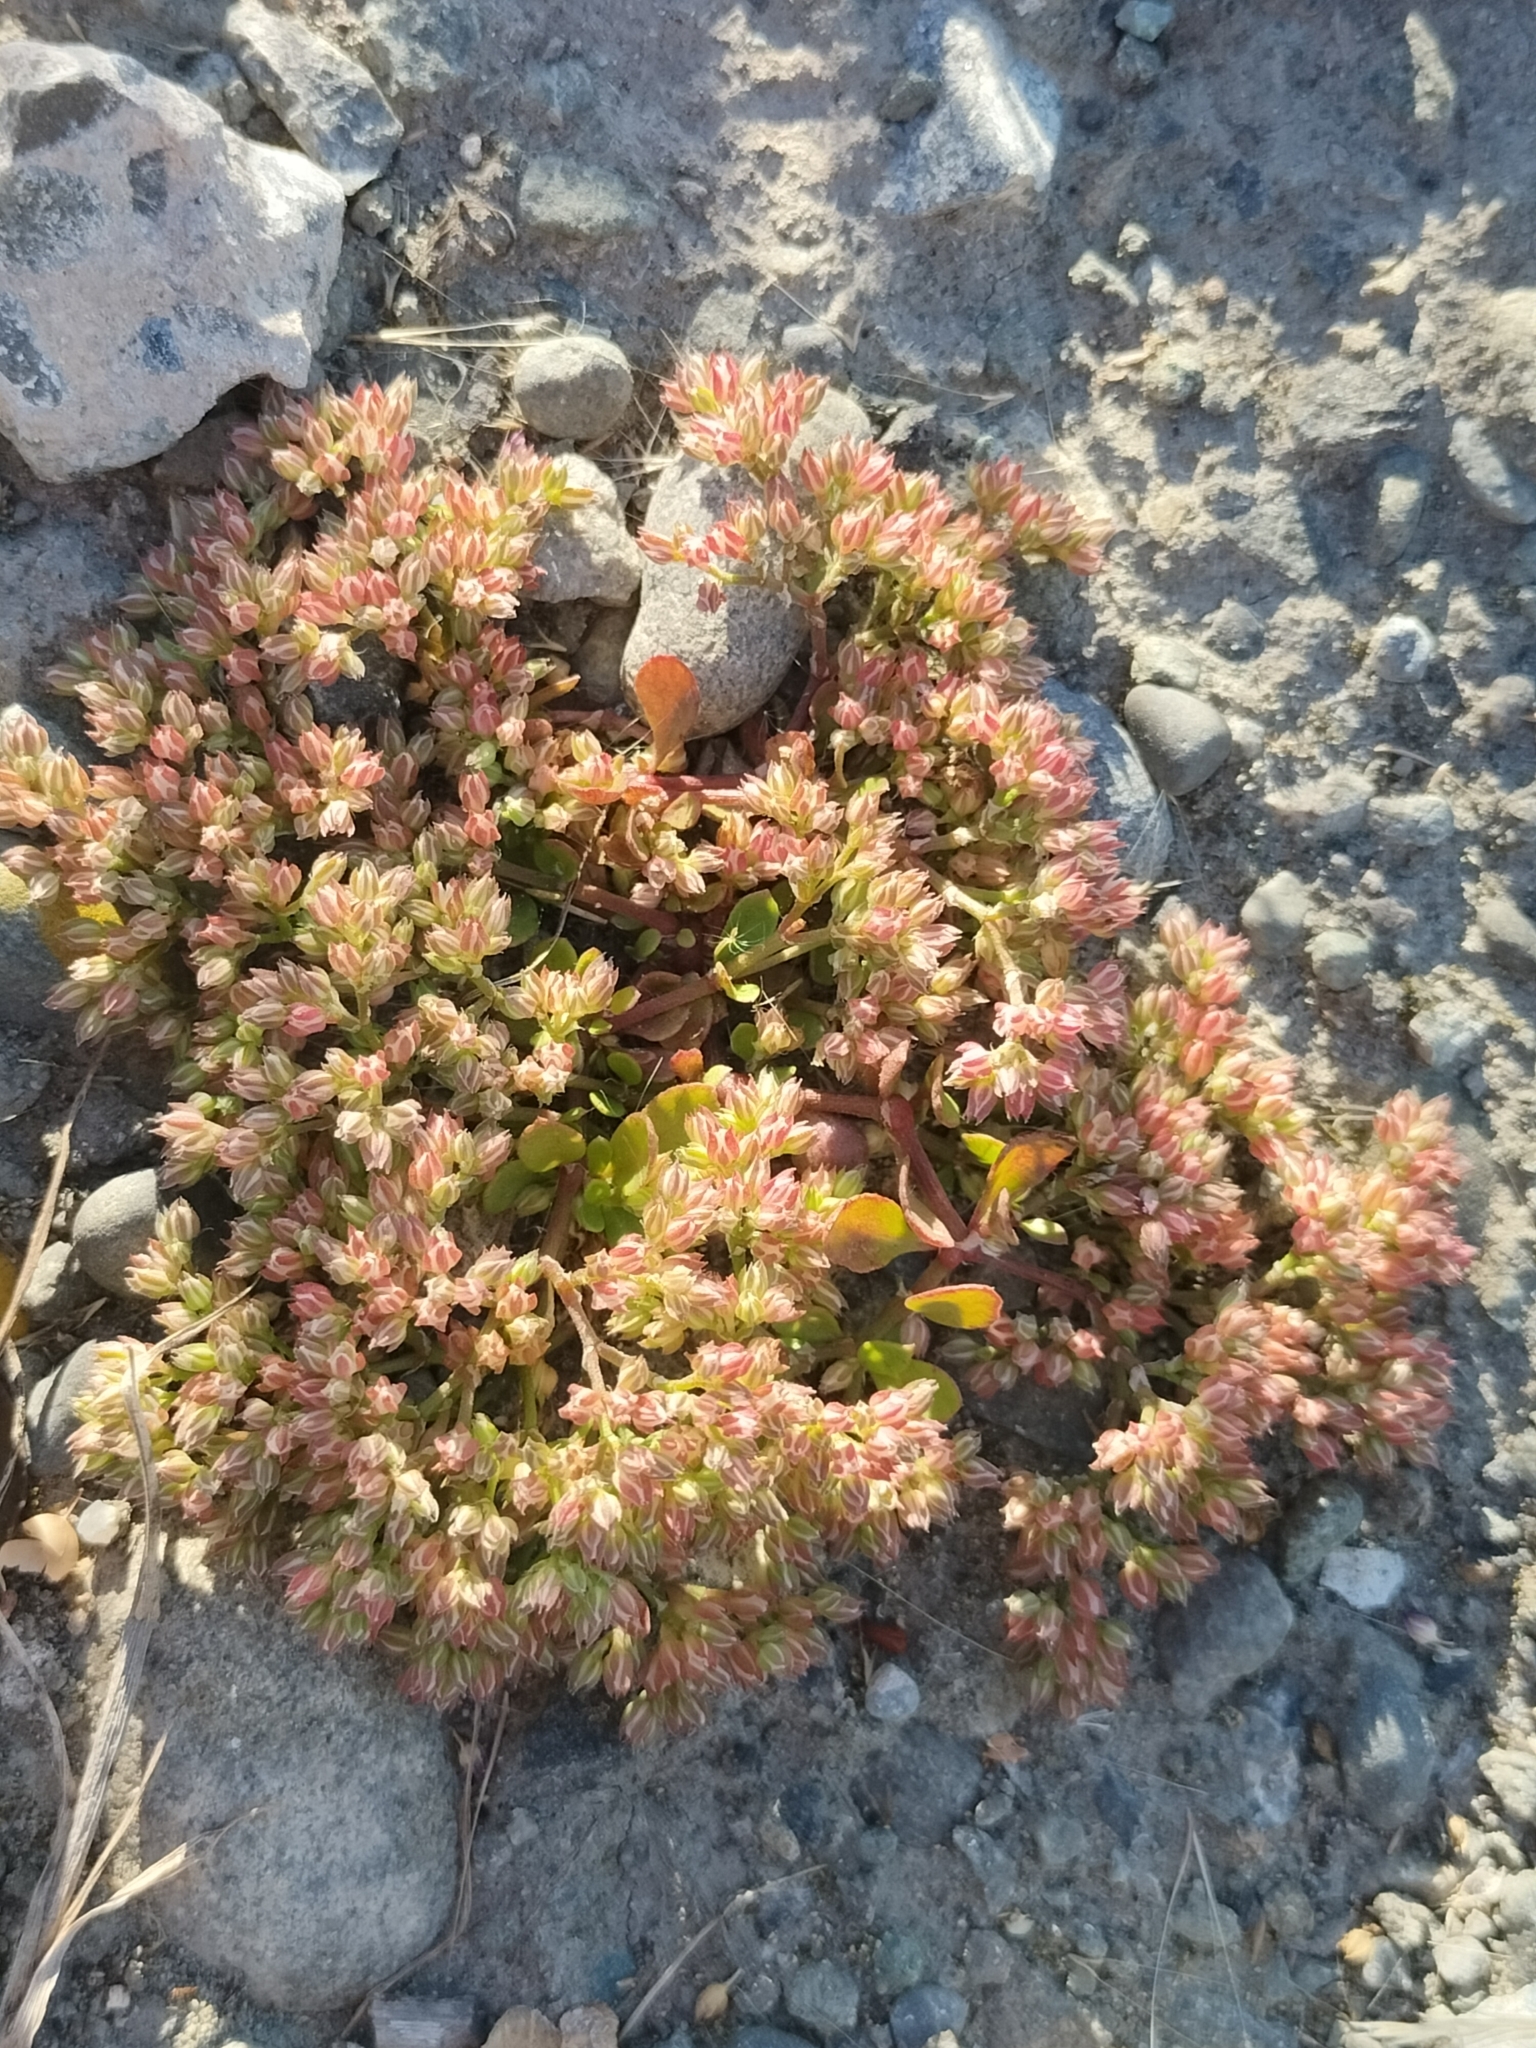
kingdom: Plantae
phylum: Tracheophyta
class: Magnoliopsida
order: Caryophyllales
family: Caryophyllaceae
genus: Polycarpon
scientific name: Polycarpon tetraphyllum
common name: Four-leaved all-seed
